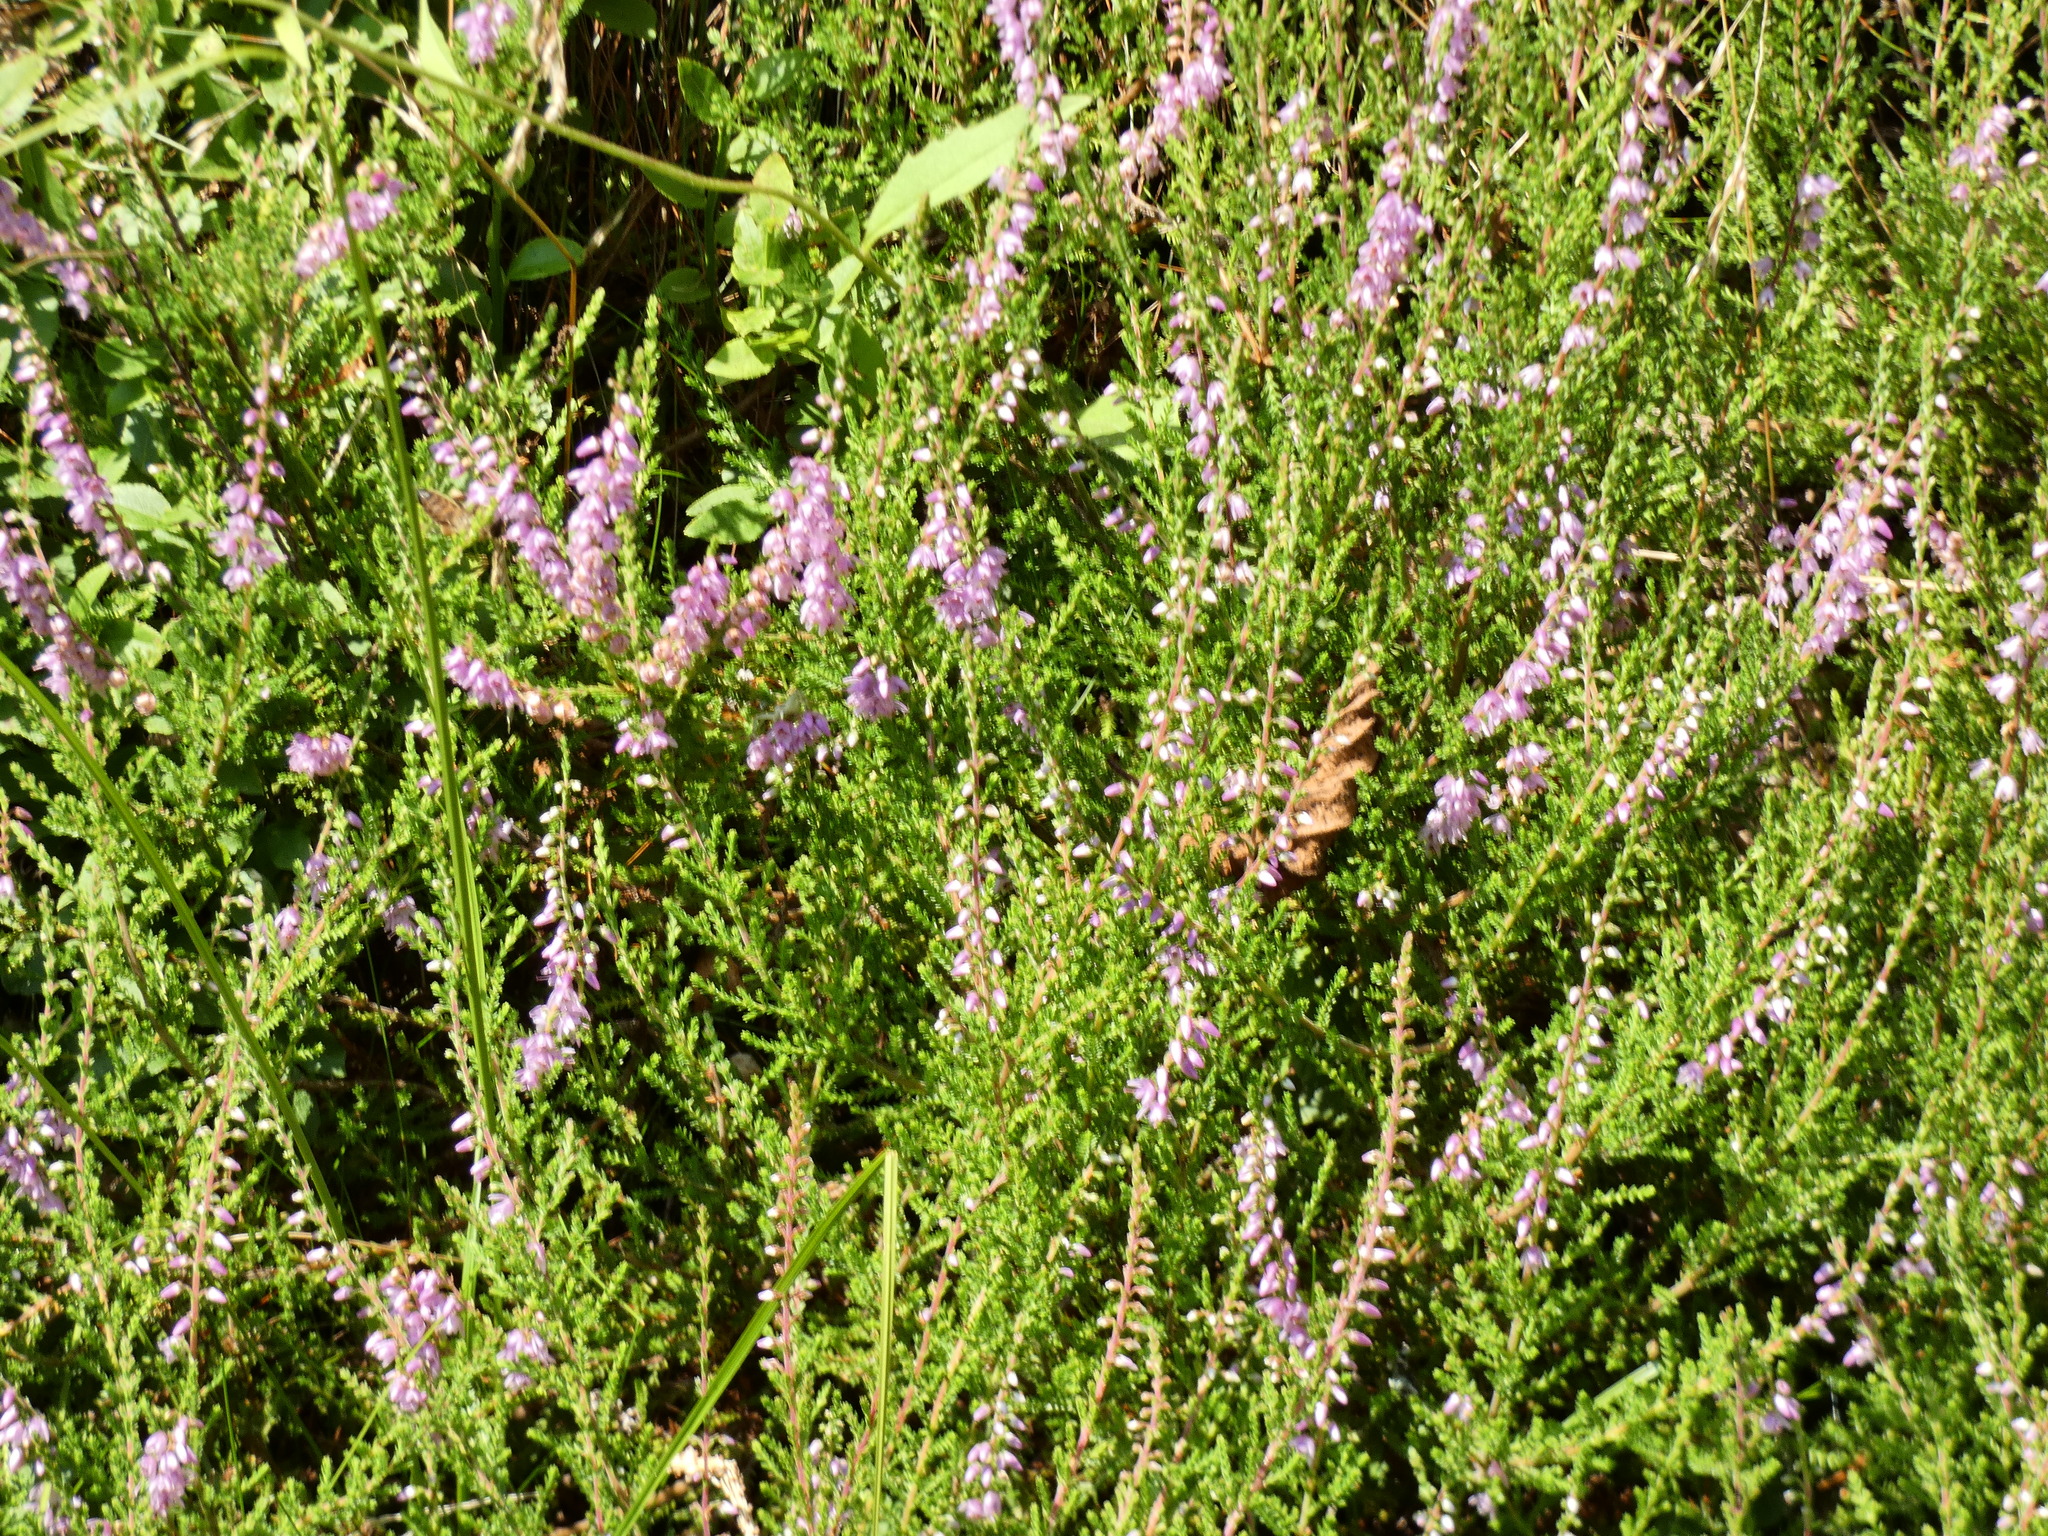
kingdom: Plantae
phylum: Tracheophyta
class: Magnoliopsida
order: Ericales
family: Ericaceae
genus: Calluna
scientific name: Calluna vulgaris
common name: Heather
